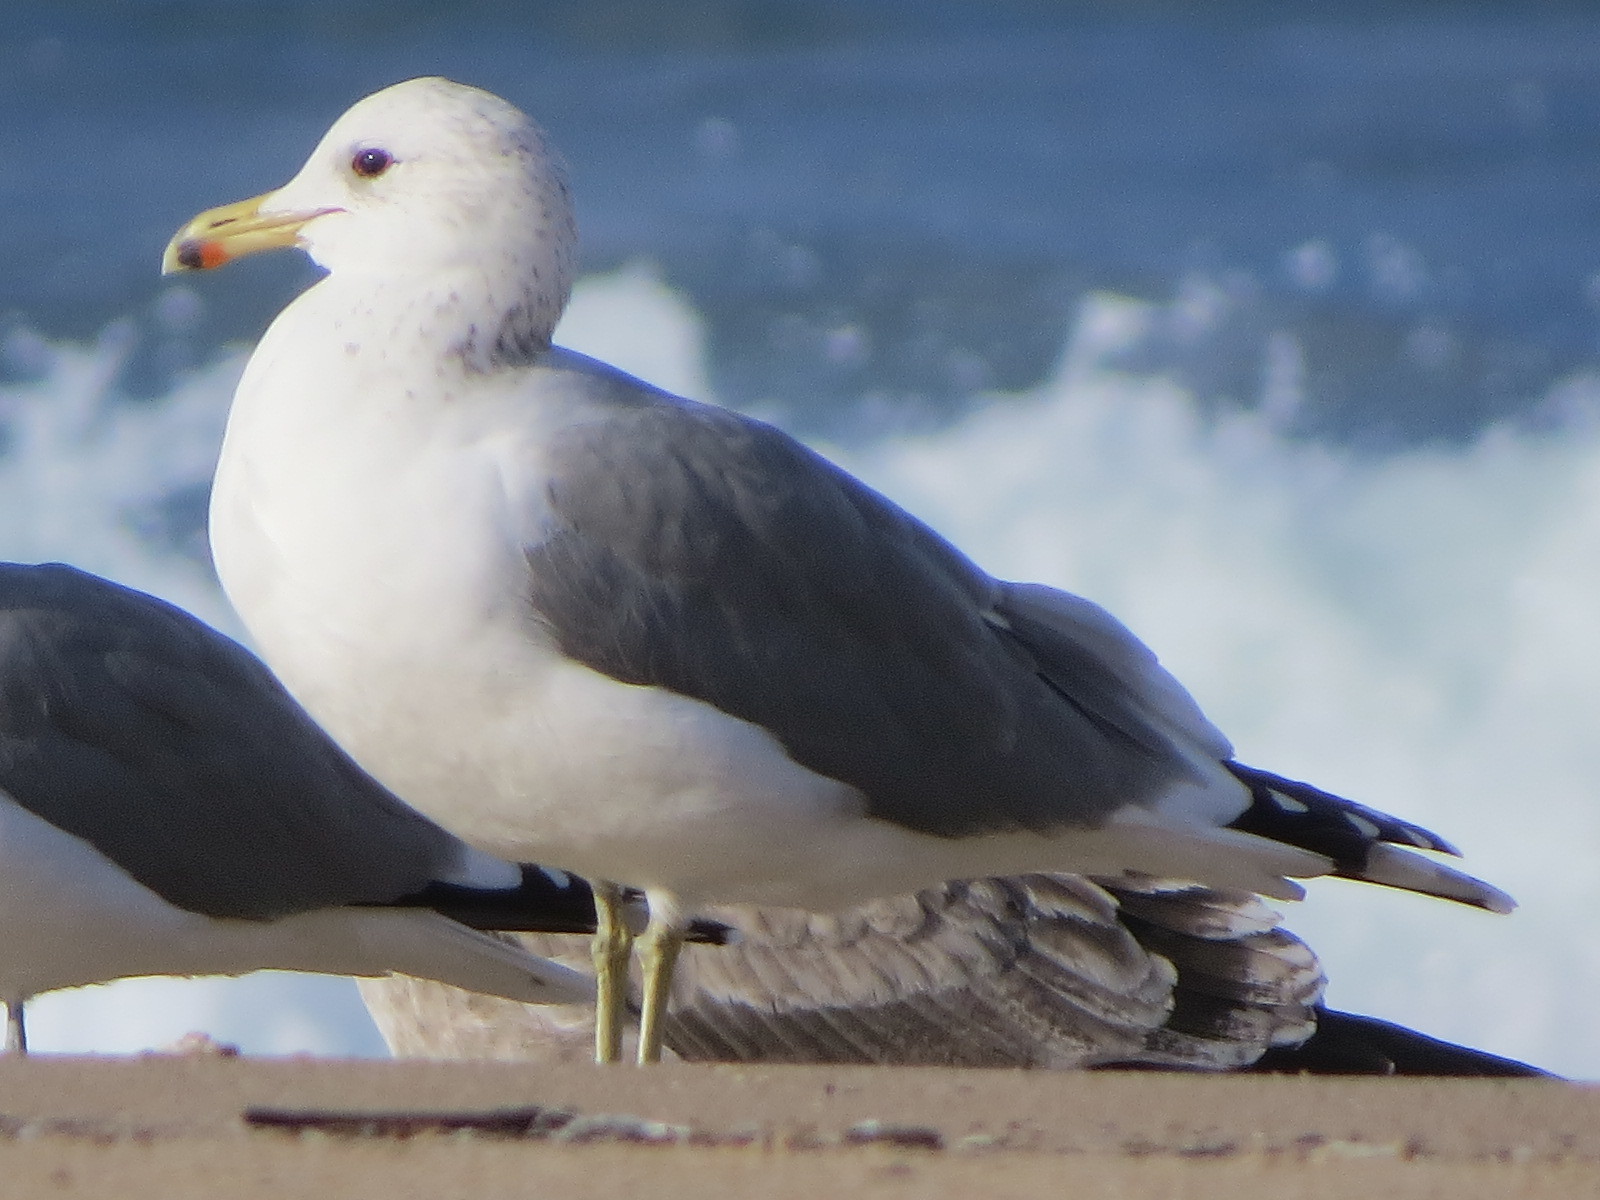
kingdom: Animalia
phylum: Chordata
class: Aves
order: Charadriiformes
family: Laridae
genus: Larus
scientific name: Larus californicus
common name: California gull
